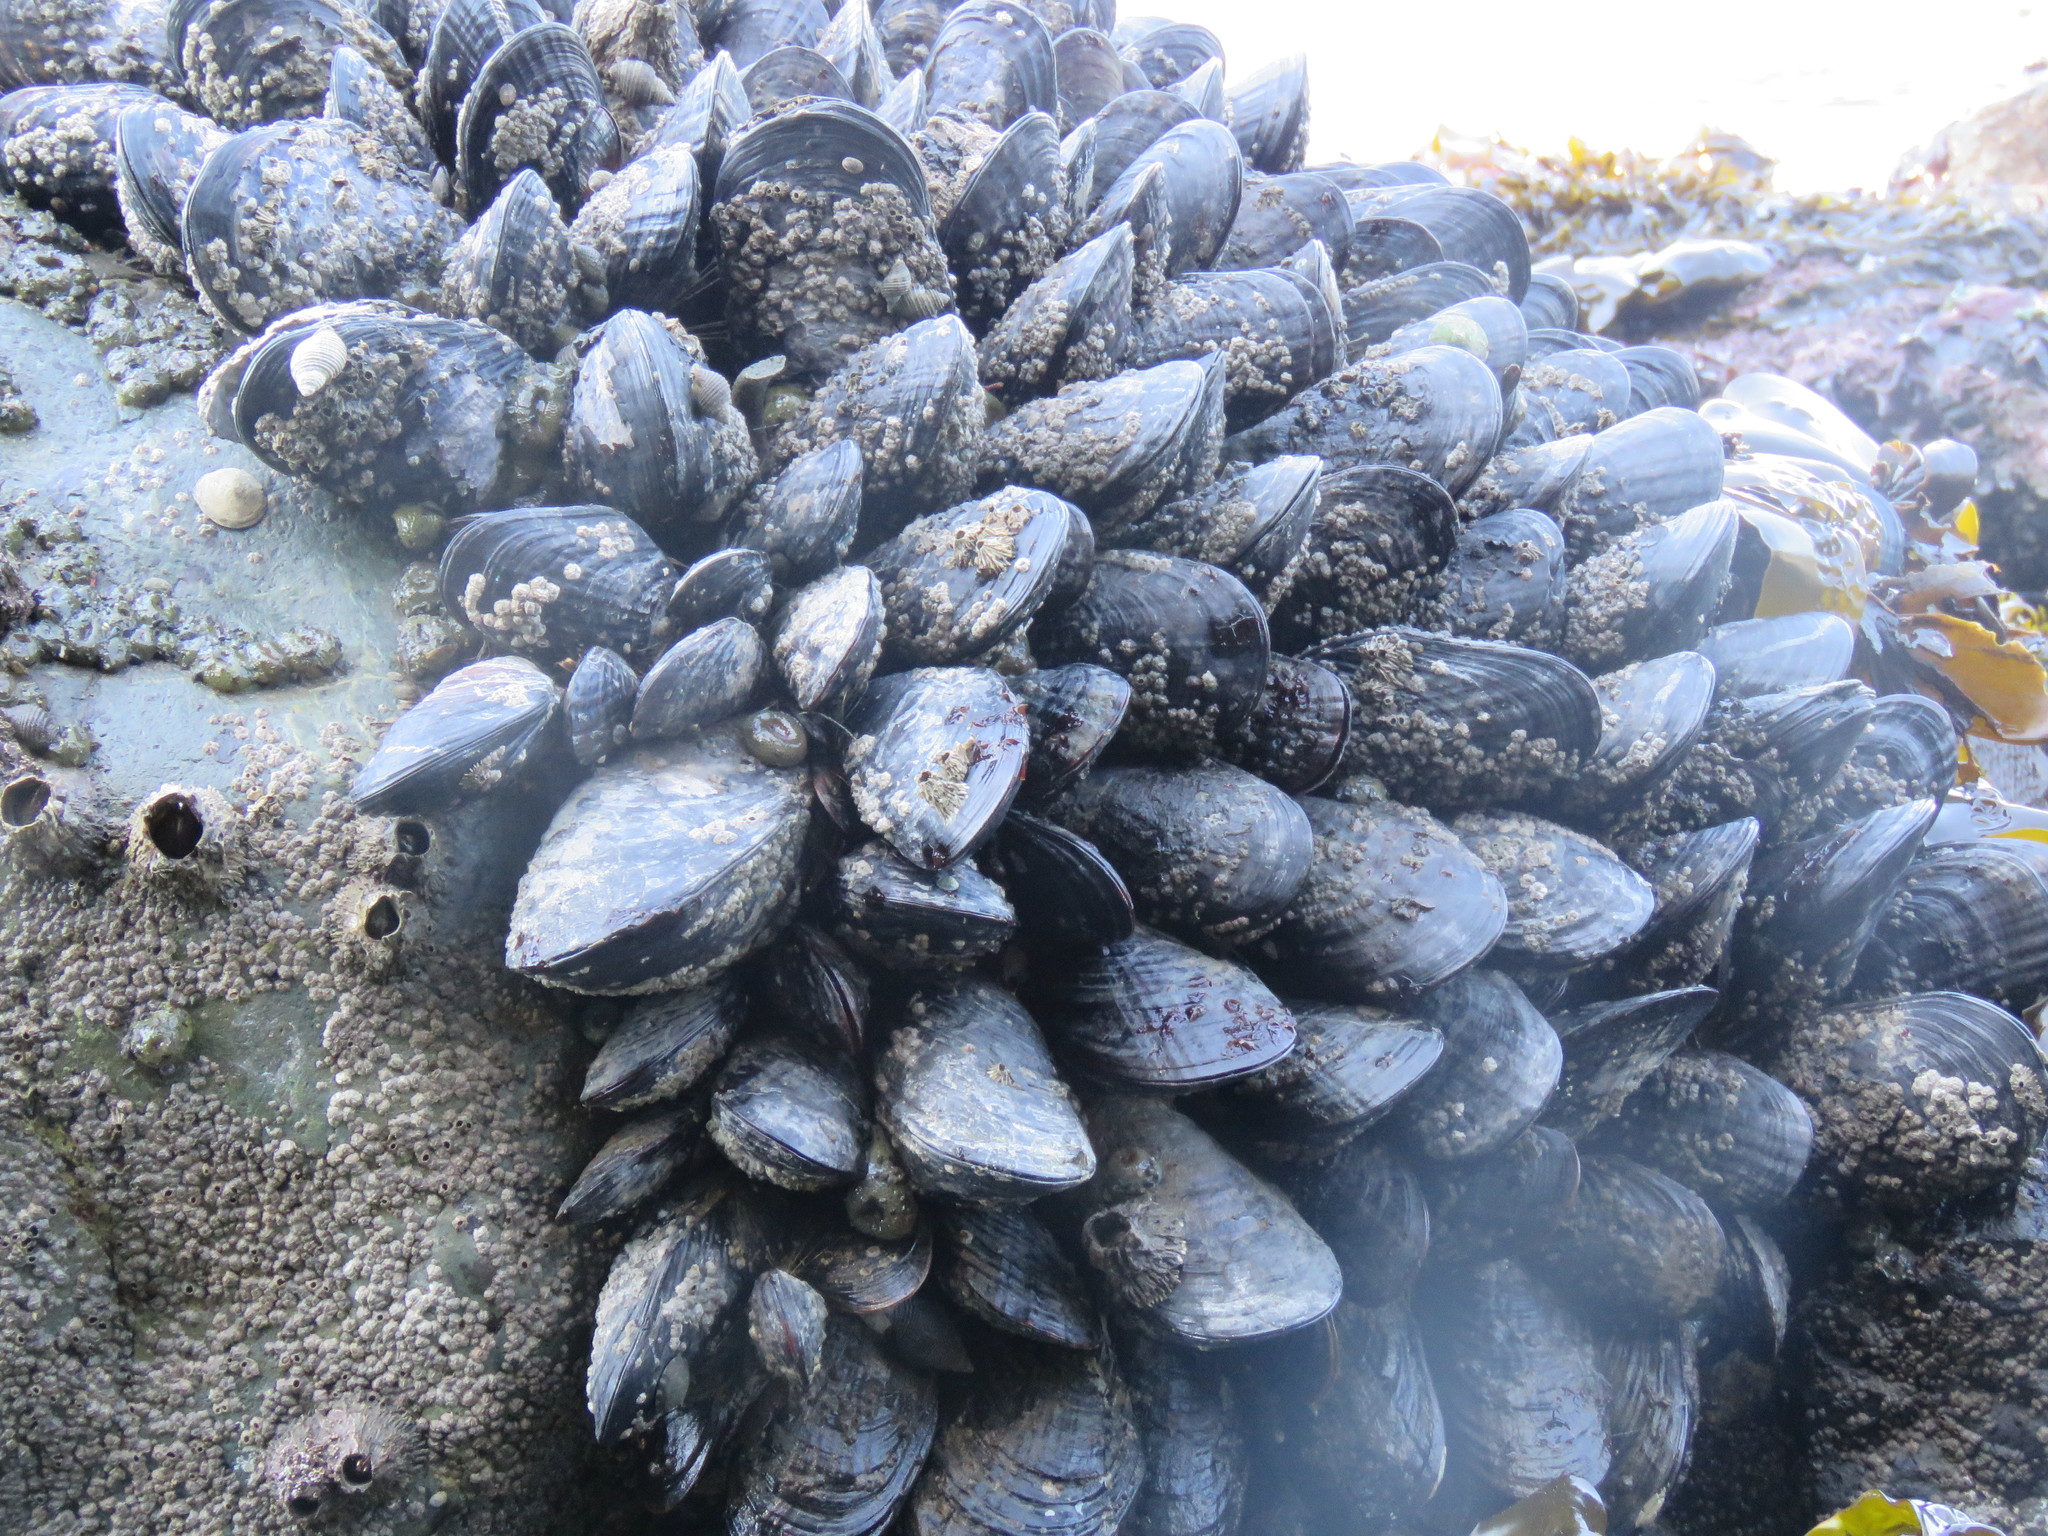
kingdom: Animalia
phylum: Mollusca
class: Bivalvia
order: Mytilida
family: Mytilidae
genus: Mytilus
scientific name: Mytilus californianus
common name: California mussel
